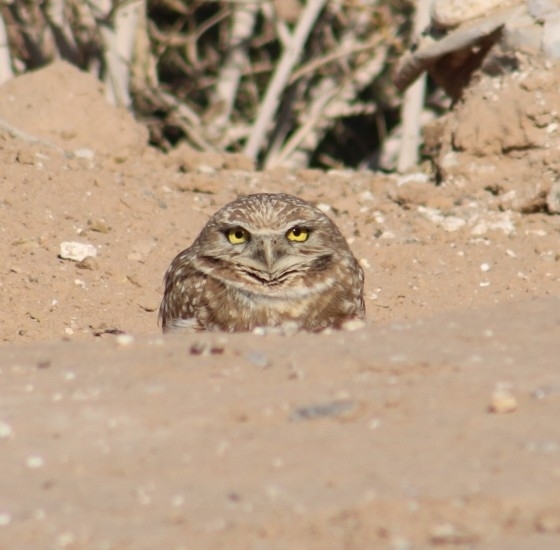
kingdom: Animalia
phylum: Chordata
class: Aves
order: Strigiformes
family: Strigidae
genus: Athene
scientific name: Athene cunicularia
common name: Burrowing owl
